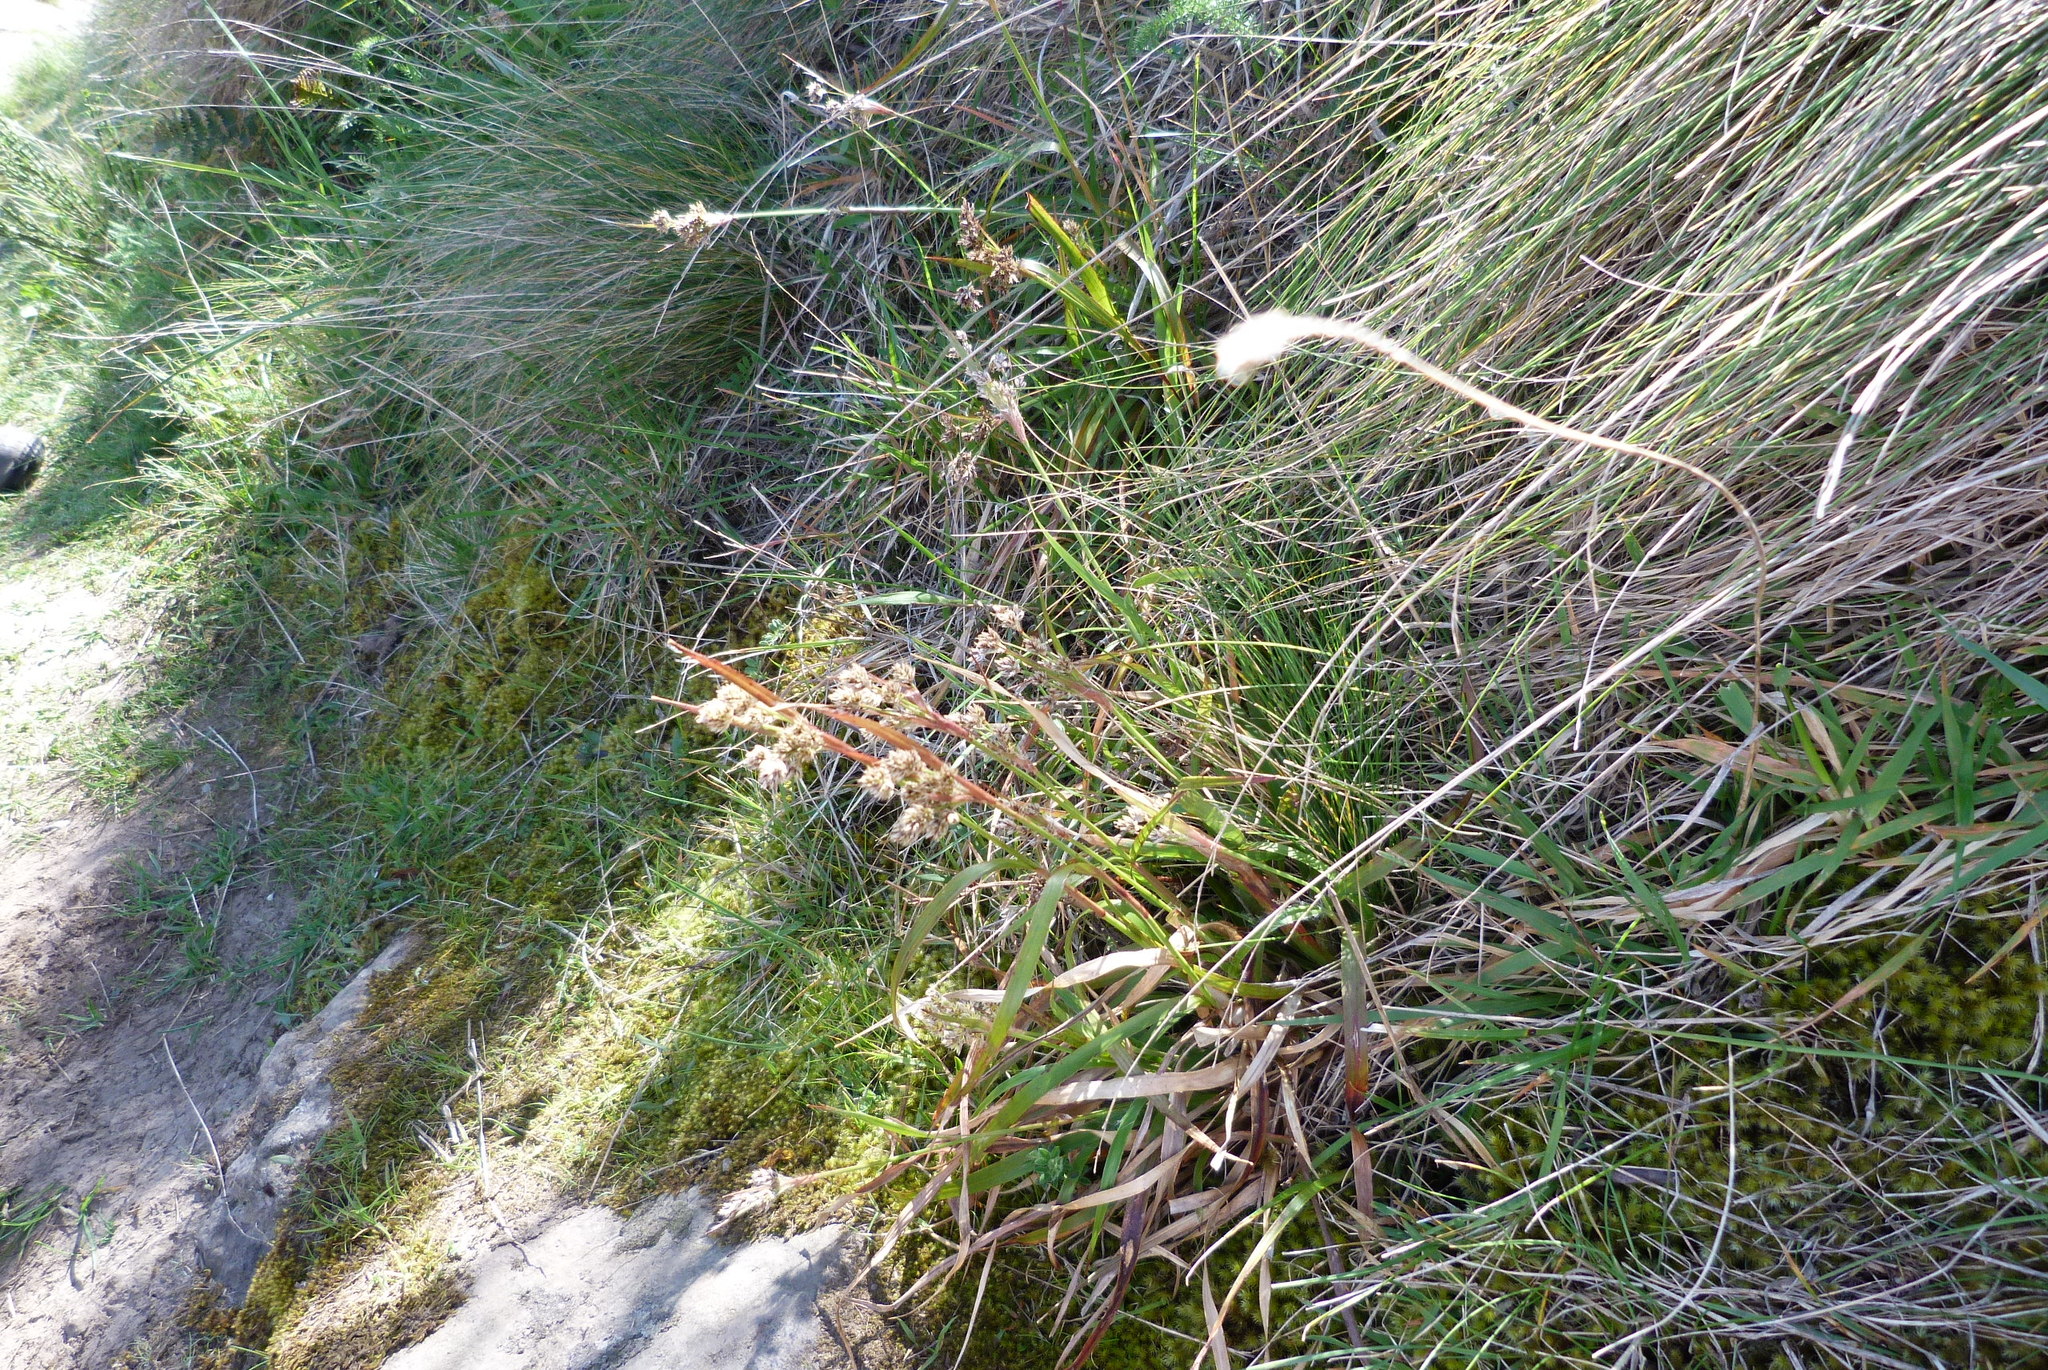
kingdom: Plantae
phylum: Tracheophyta
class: Liliopsida
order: Poales
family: Juncaceae
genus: Luzula
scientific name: Luzula banksiana
